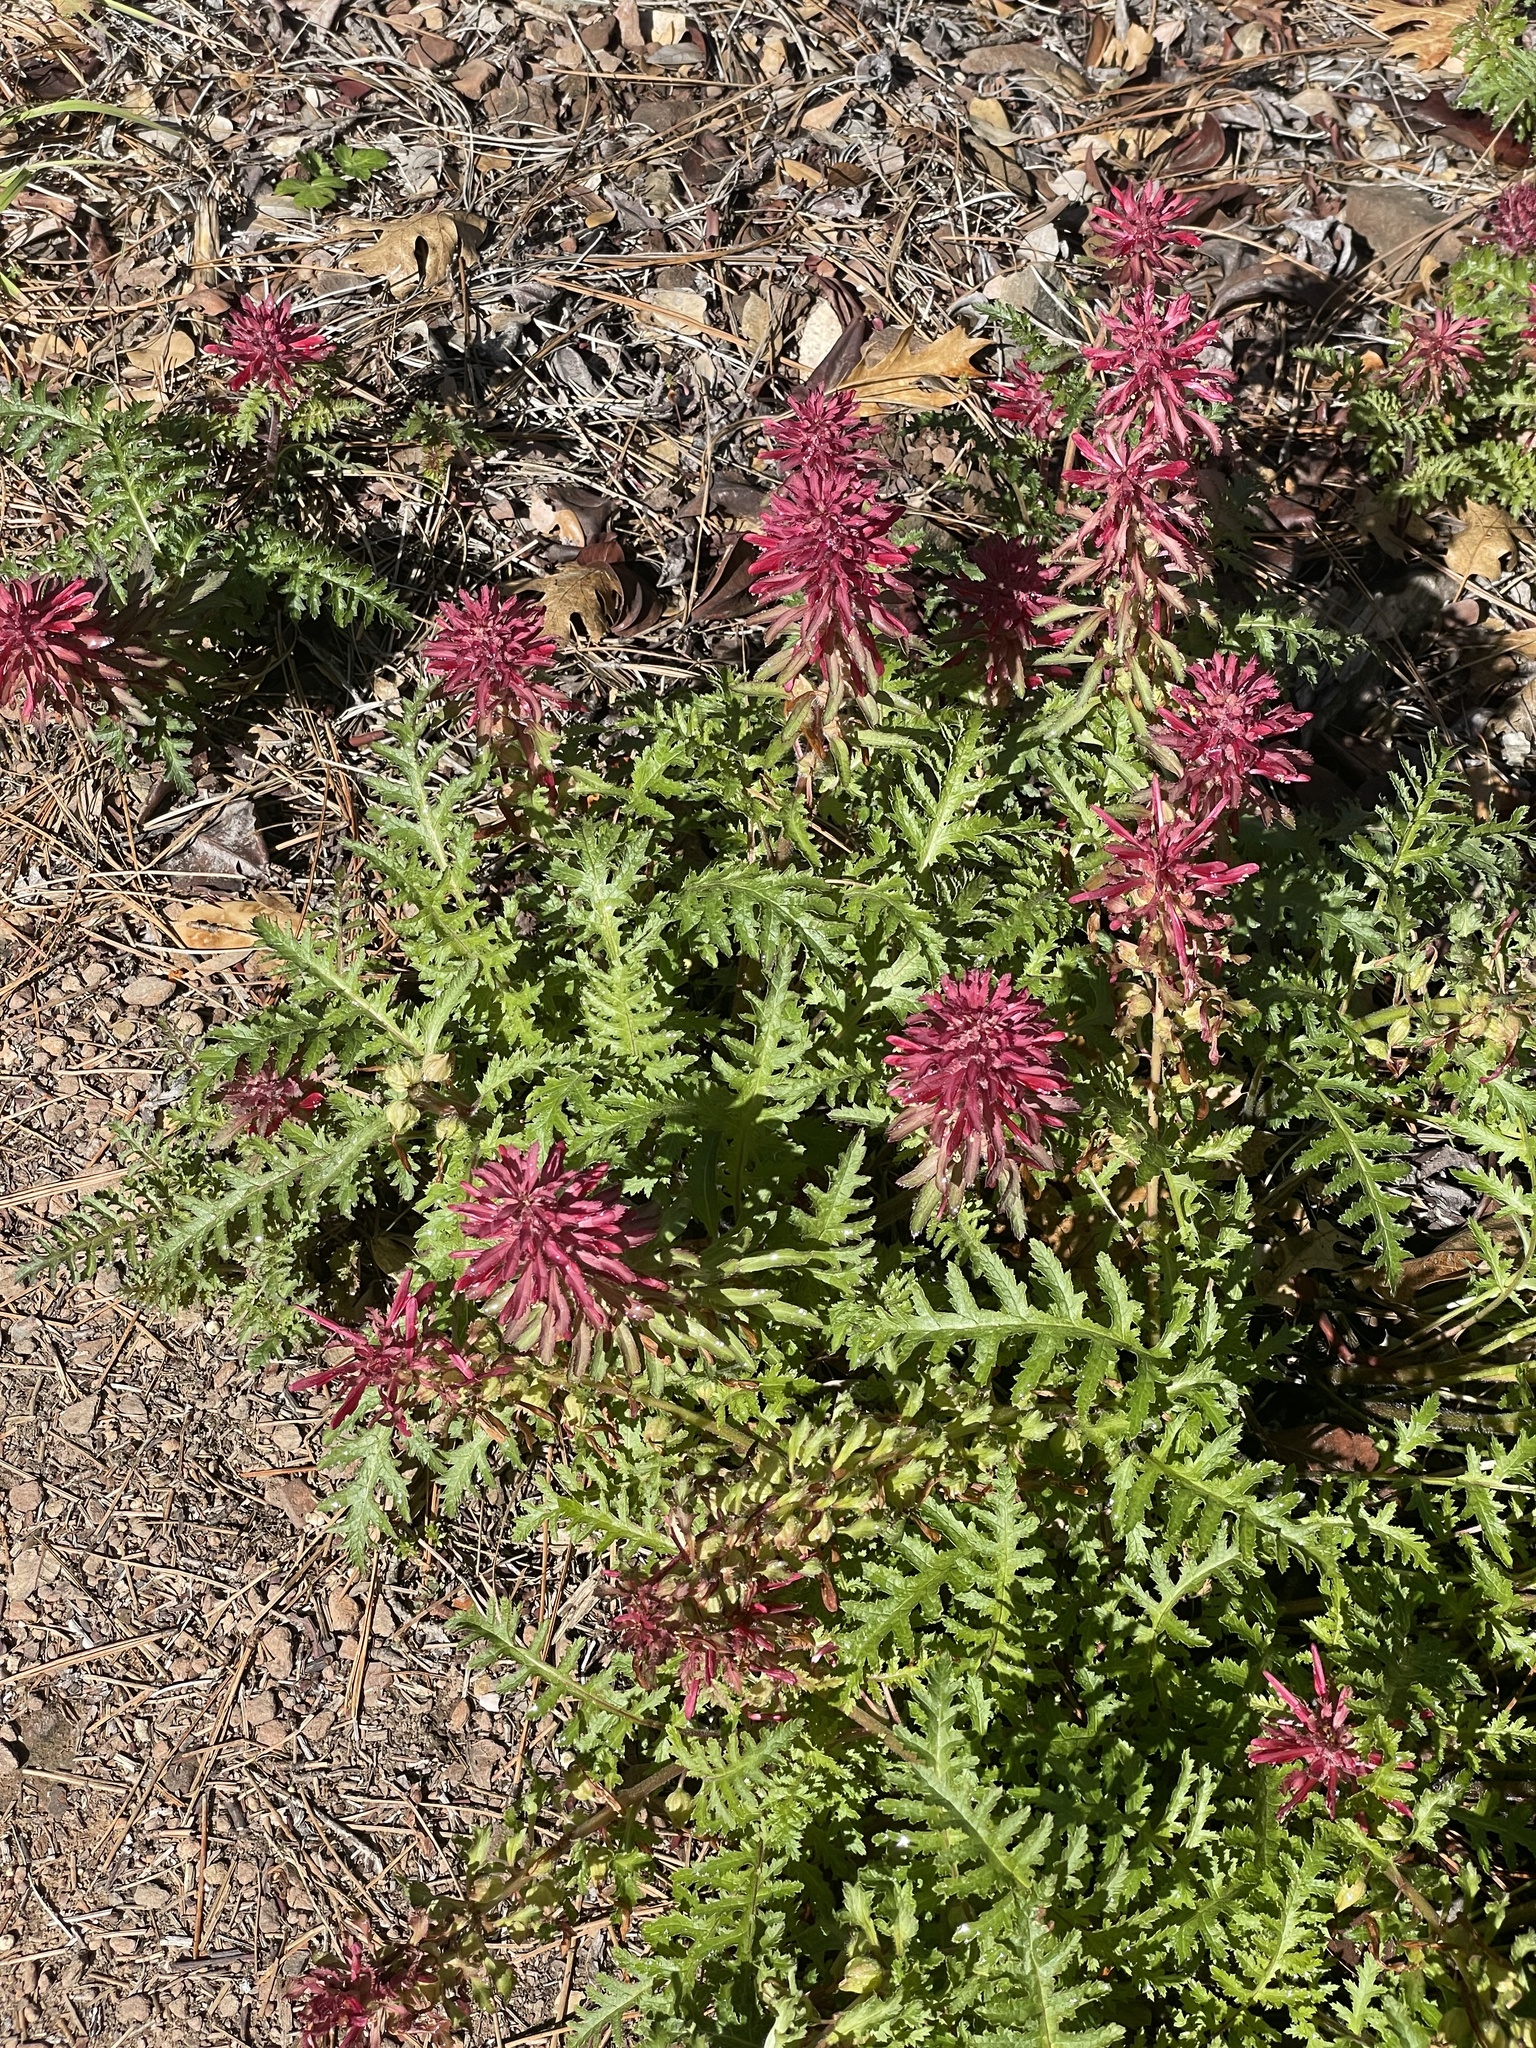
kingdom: Plantae
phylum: Tracheophyta
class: Magnoliopsida
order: Lamiales
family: Orobanchaceae
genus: Pedicularis
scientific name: Pedicularis densiflora
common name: Indian warrior
